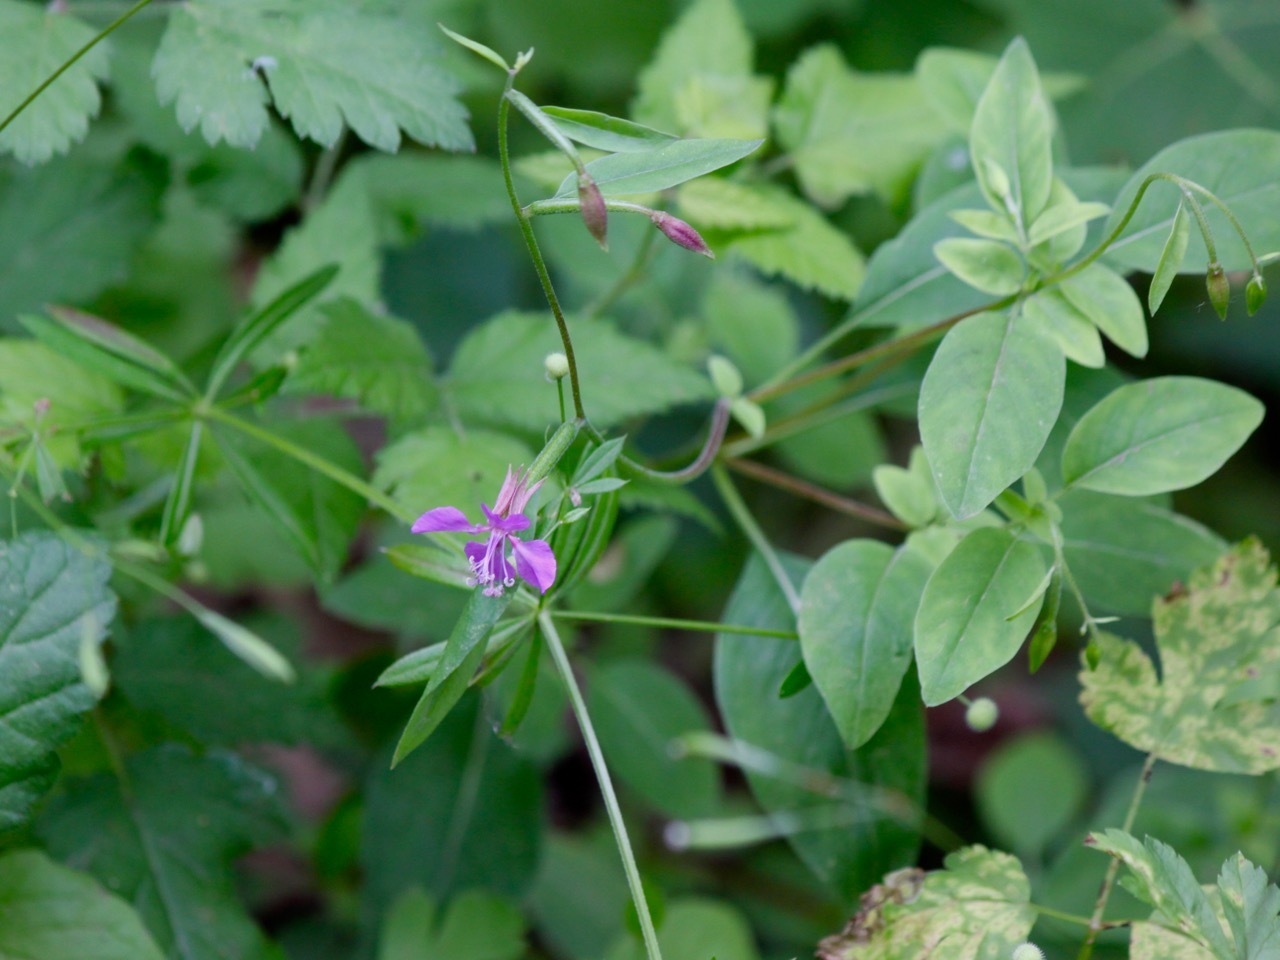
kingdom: Plantae
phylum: Tracheophyta
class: Magnoliopsida
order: Myrtales
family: Onagraceae
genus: Clarkia
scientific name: Clarkia rhomboidea
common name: Broadleaf clarkia
